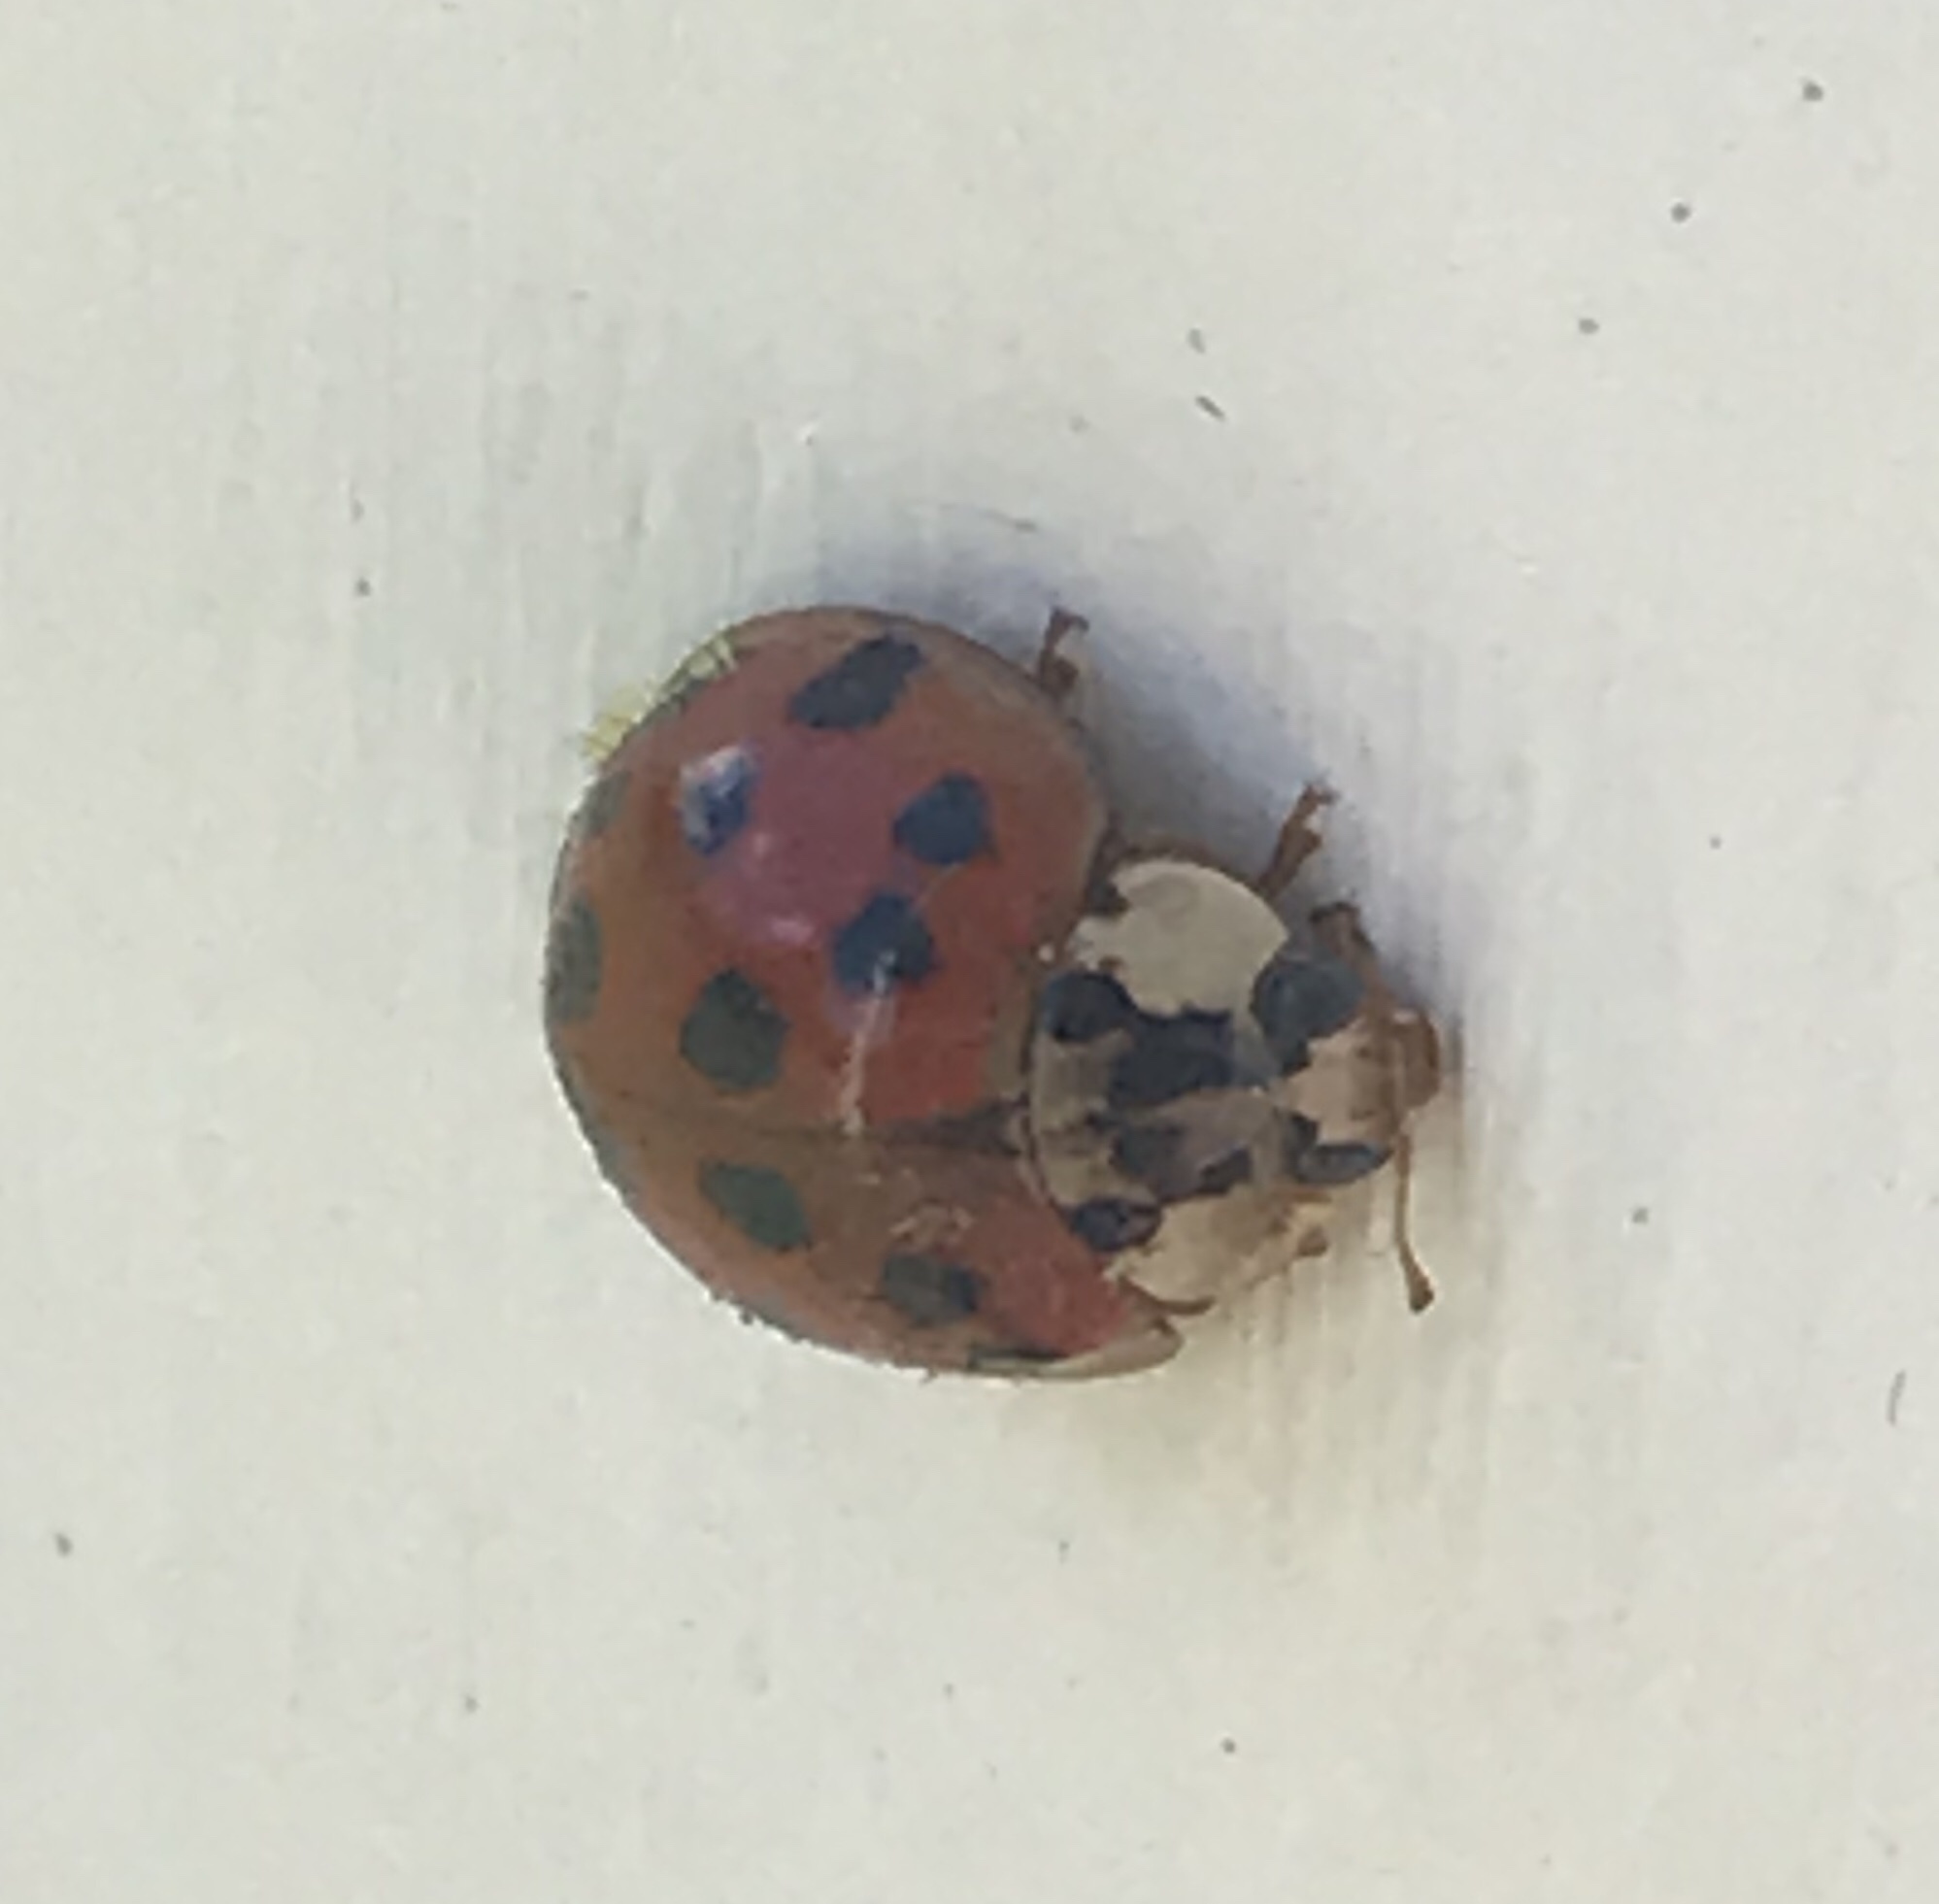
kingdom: Animalia
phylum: Arthropoda
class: Insecta
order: Coleoptera
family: Coccinellidae
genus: Harmonia
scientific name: Harmonia axyridis
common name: Harlequin ladybird
